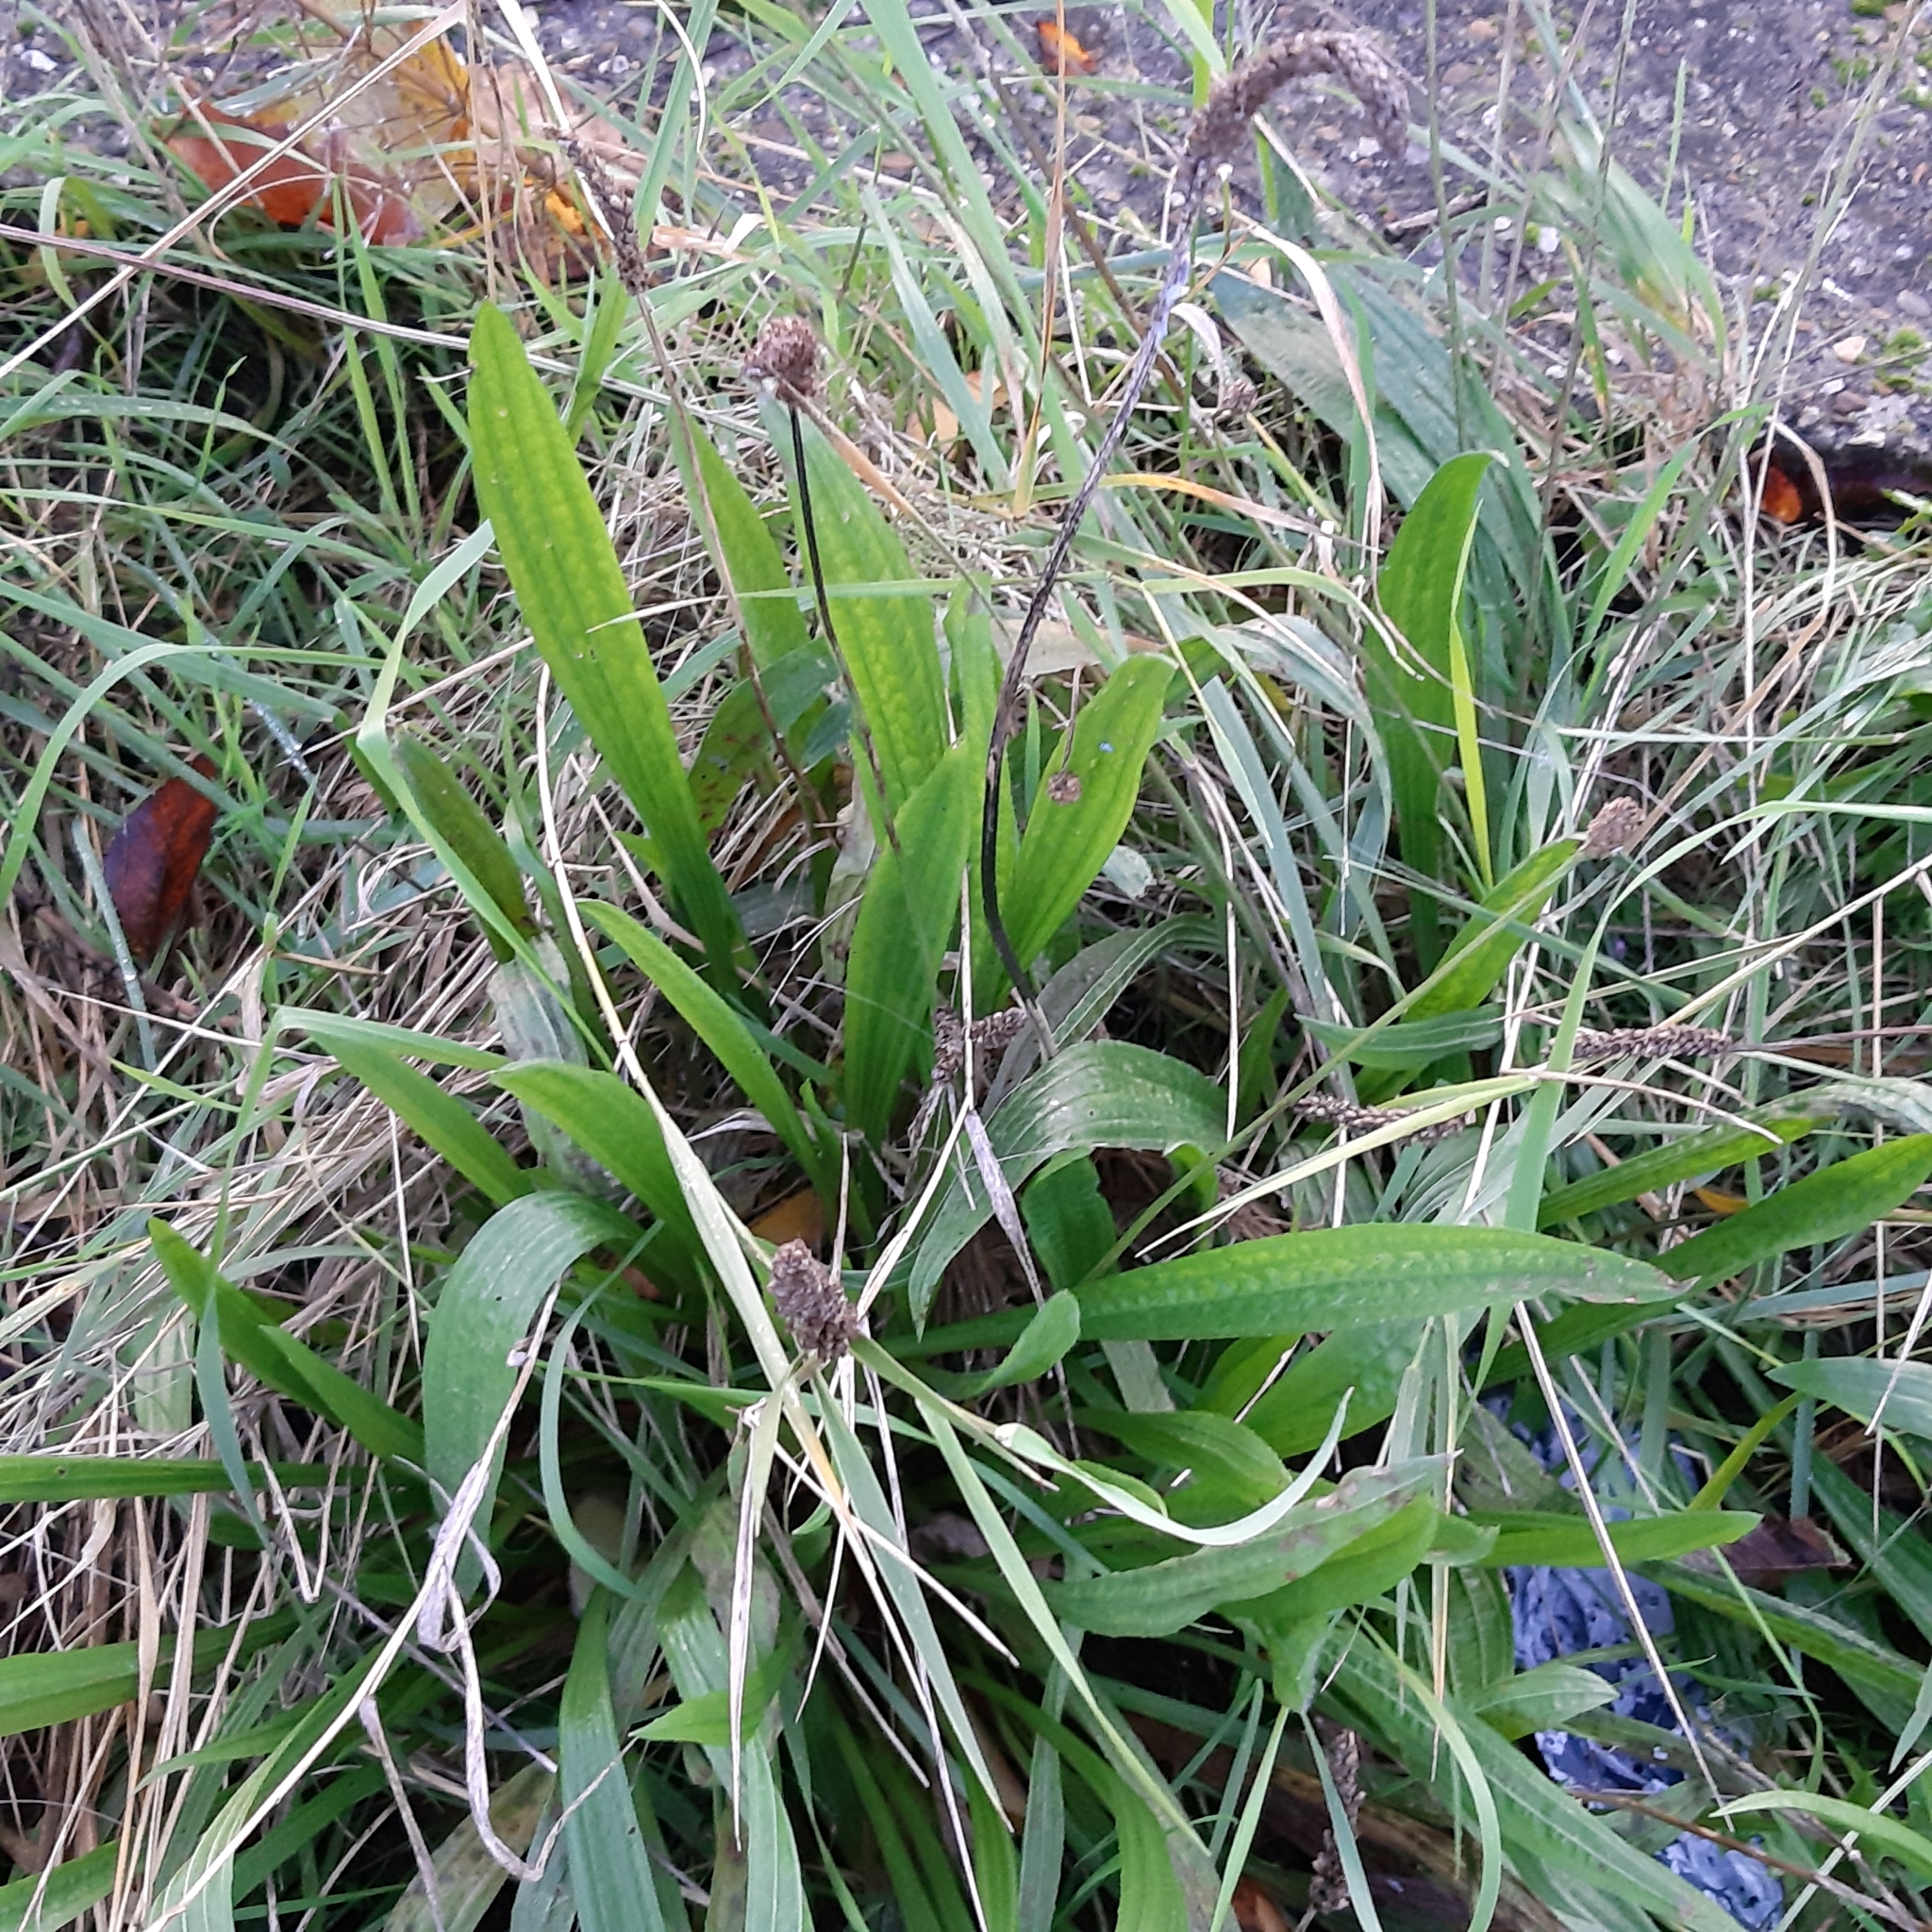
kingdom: Plantae
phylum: Tracheophyta
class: Magnoliopsida
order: Lamiales
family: Plantaginaceae
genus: Plantago
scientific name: Plantago lanceolata
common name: Ribwort plantain
